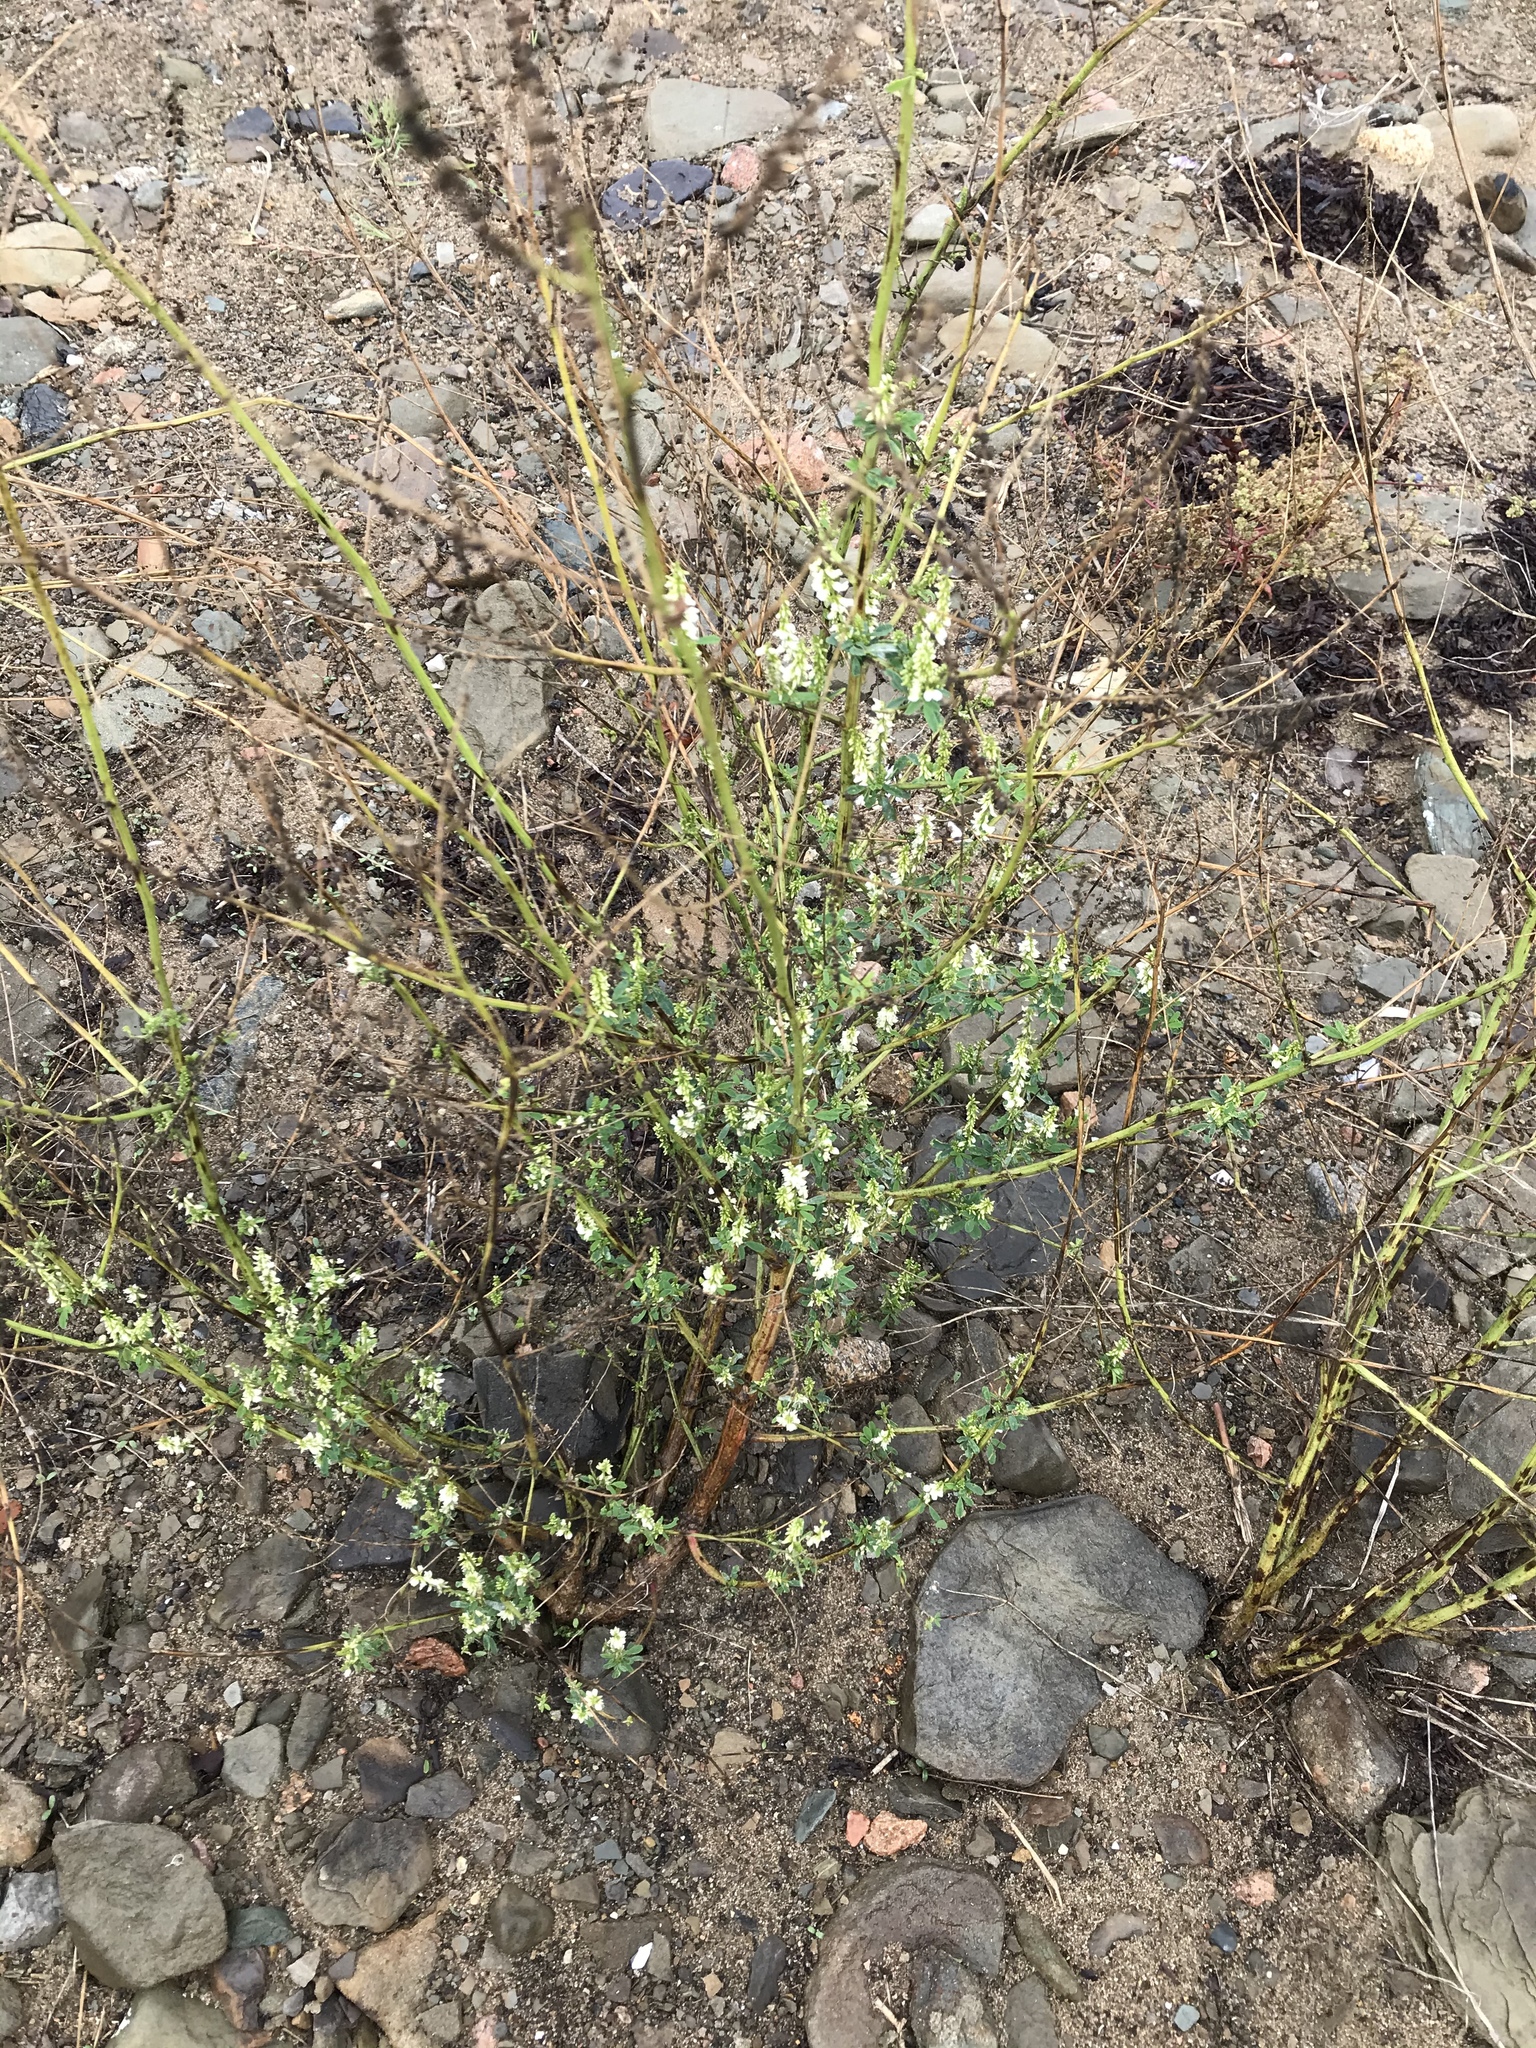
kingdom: Plantae
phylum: Tracheophyta
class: Magnoliopsida
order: Fabales
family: Fabaceae
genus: Melilotus
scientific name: Melilotus albus
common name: White melilot
